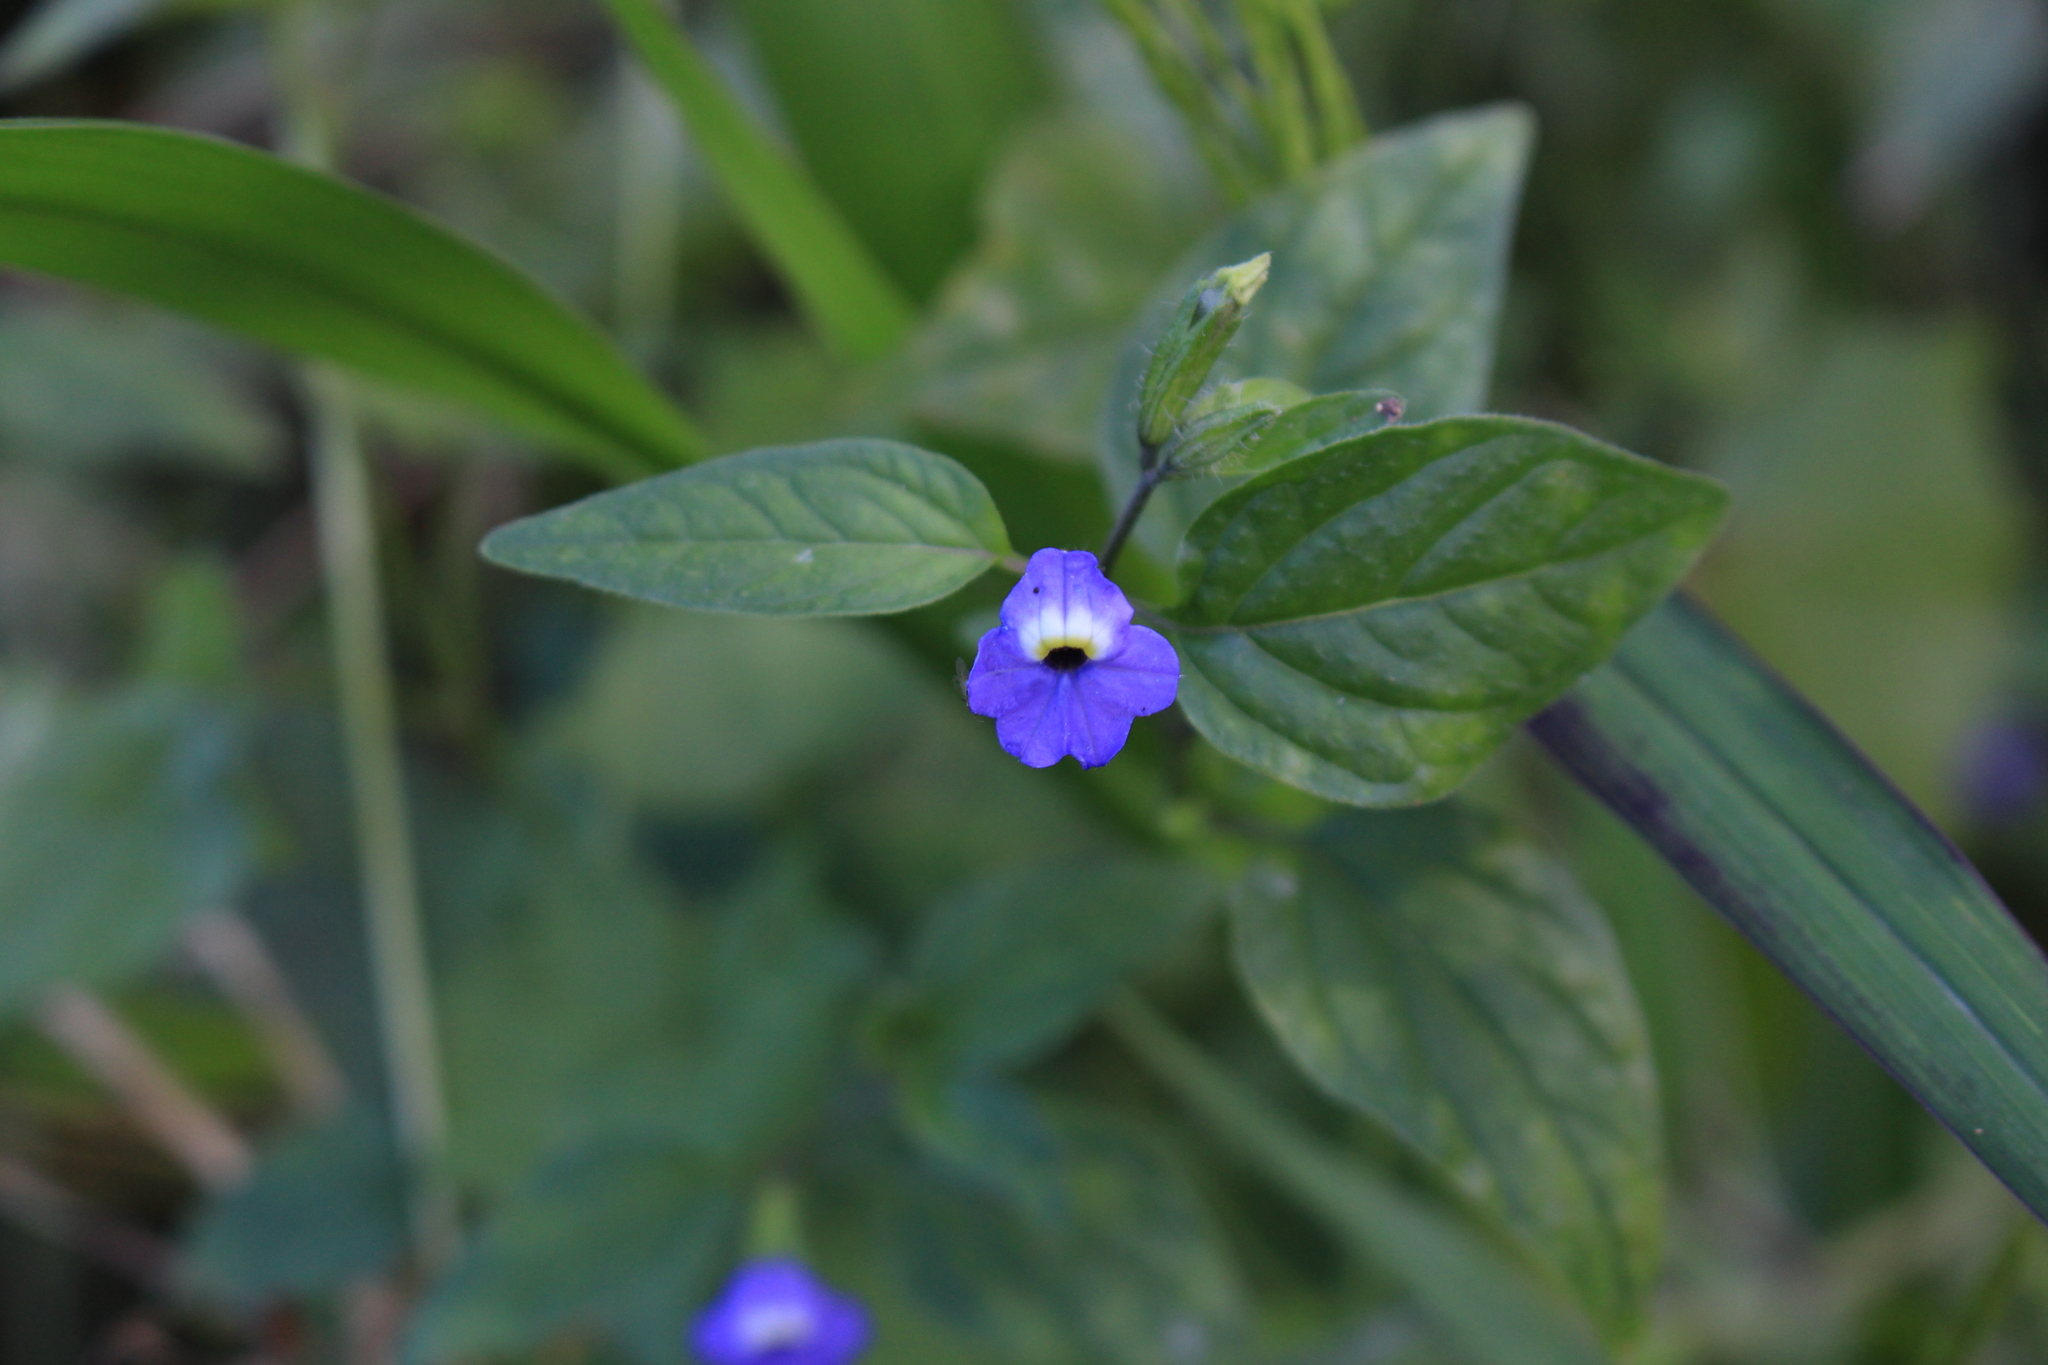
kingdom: Plantae
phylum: Tracheophyta
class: Magnoliopsida
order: Solanales
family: Solanaceae
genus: Browallia
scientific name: Browallia americana
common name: Jamaican forget-me-not
